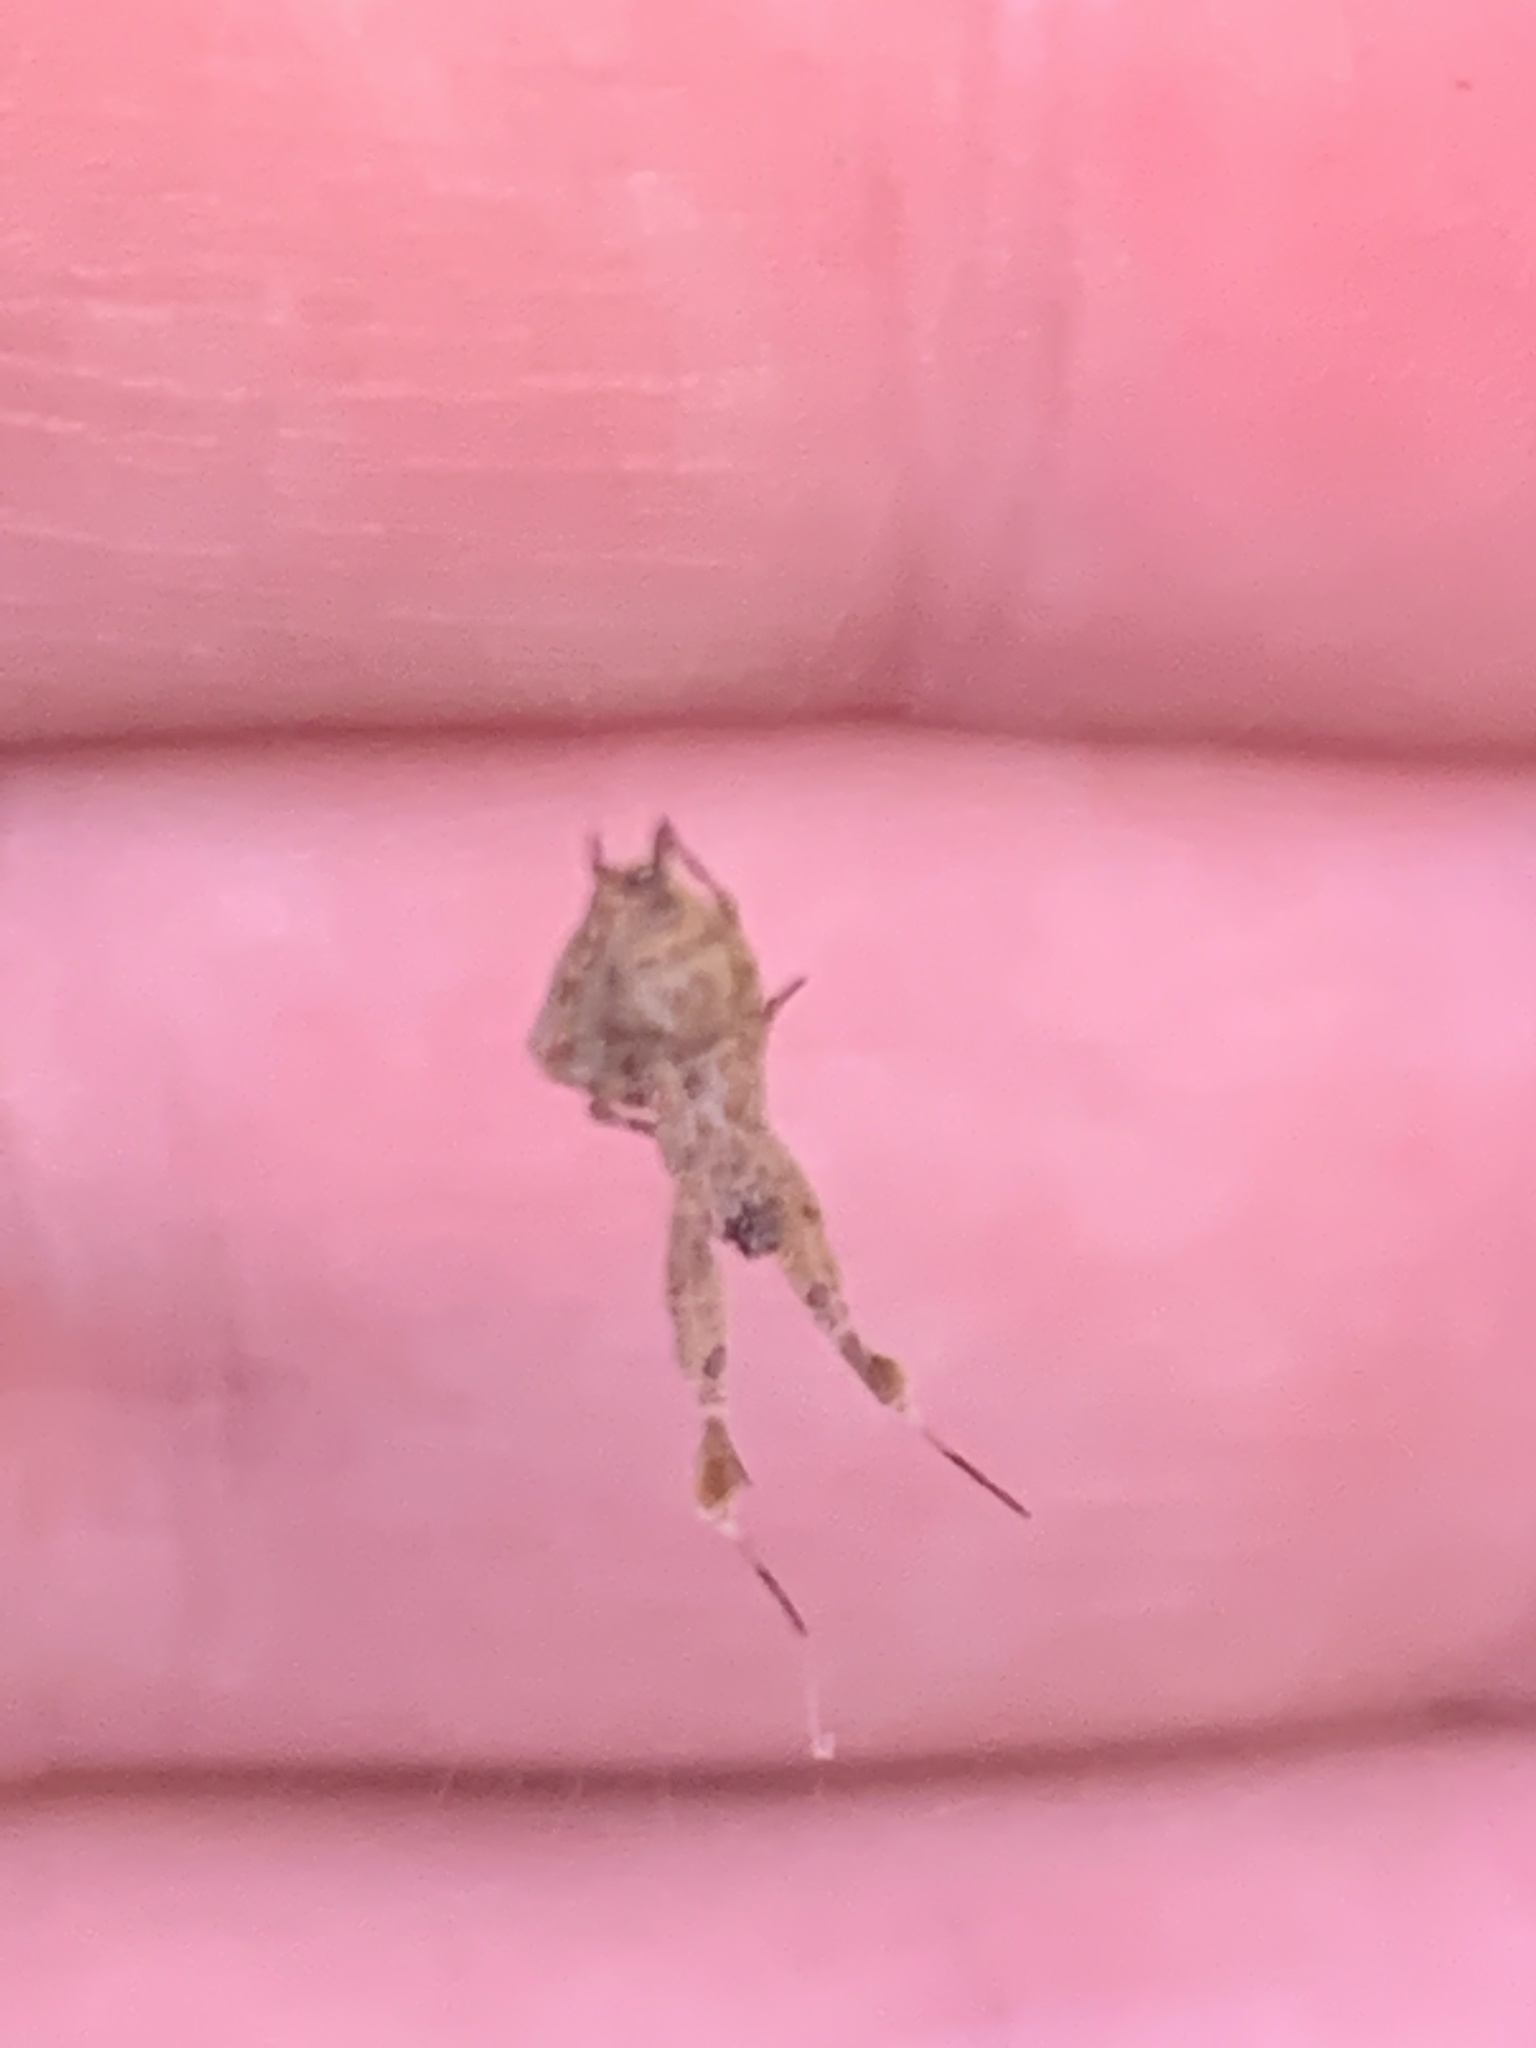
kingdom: Animalia
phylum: Arthropoda
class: Arachnida
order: Araneae
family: Uloboridae
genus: Uloborus
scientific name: Uloborus plumipes
